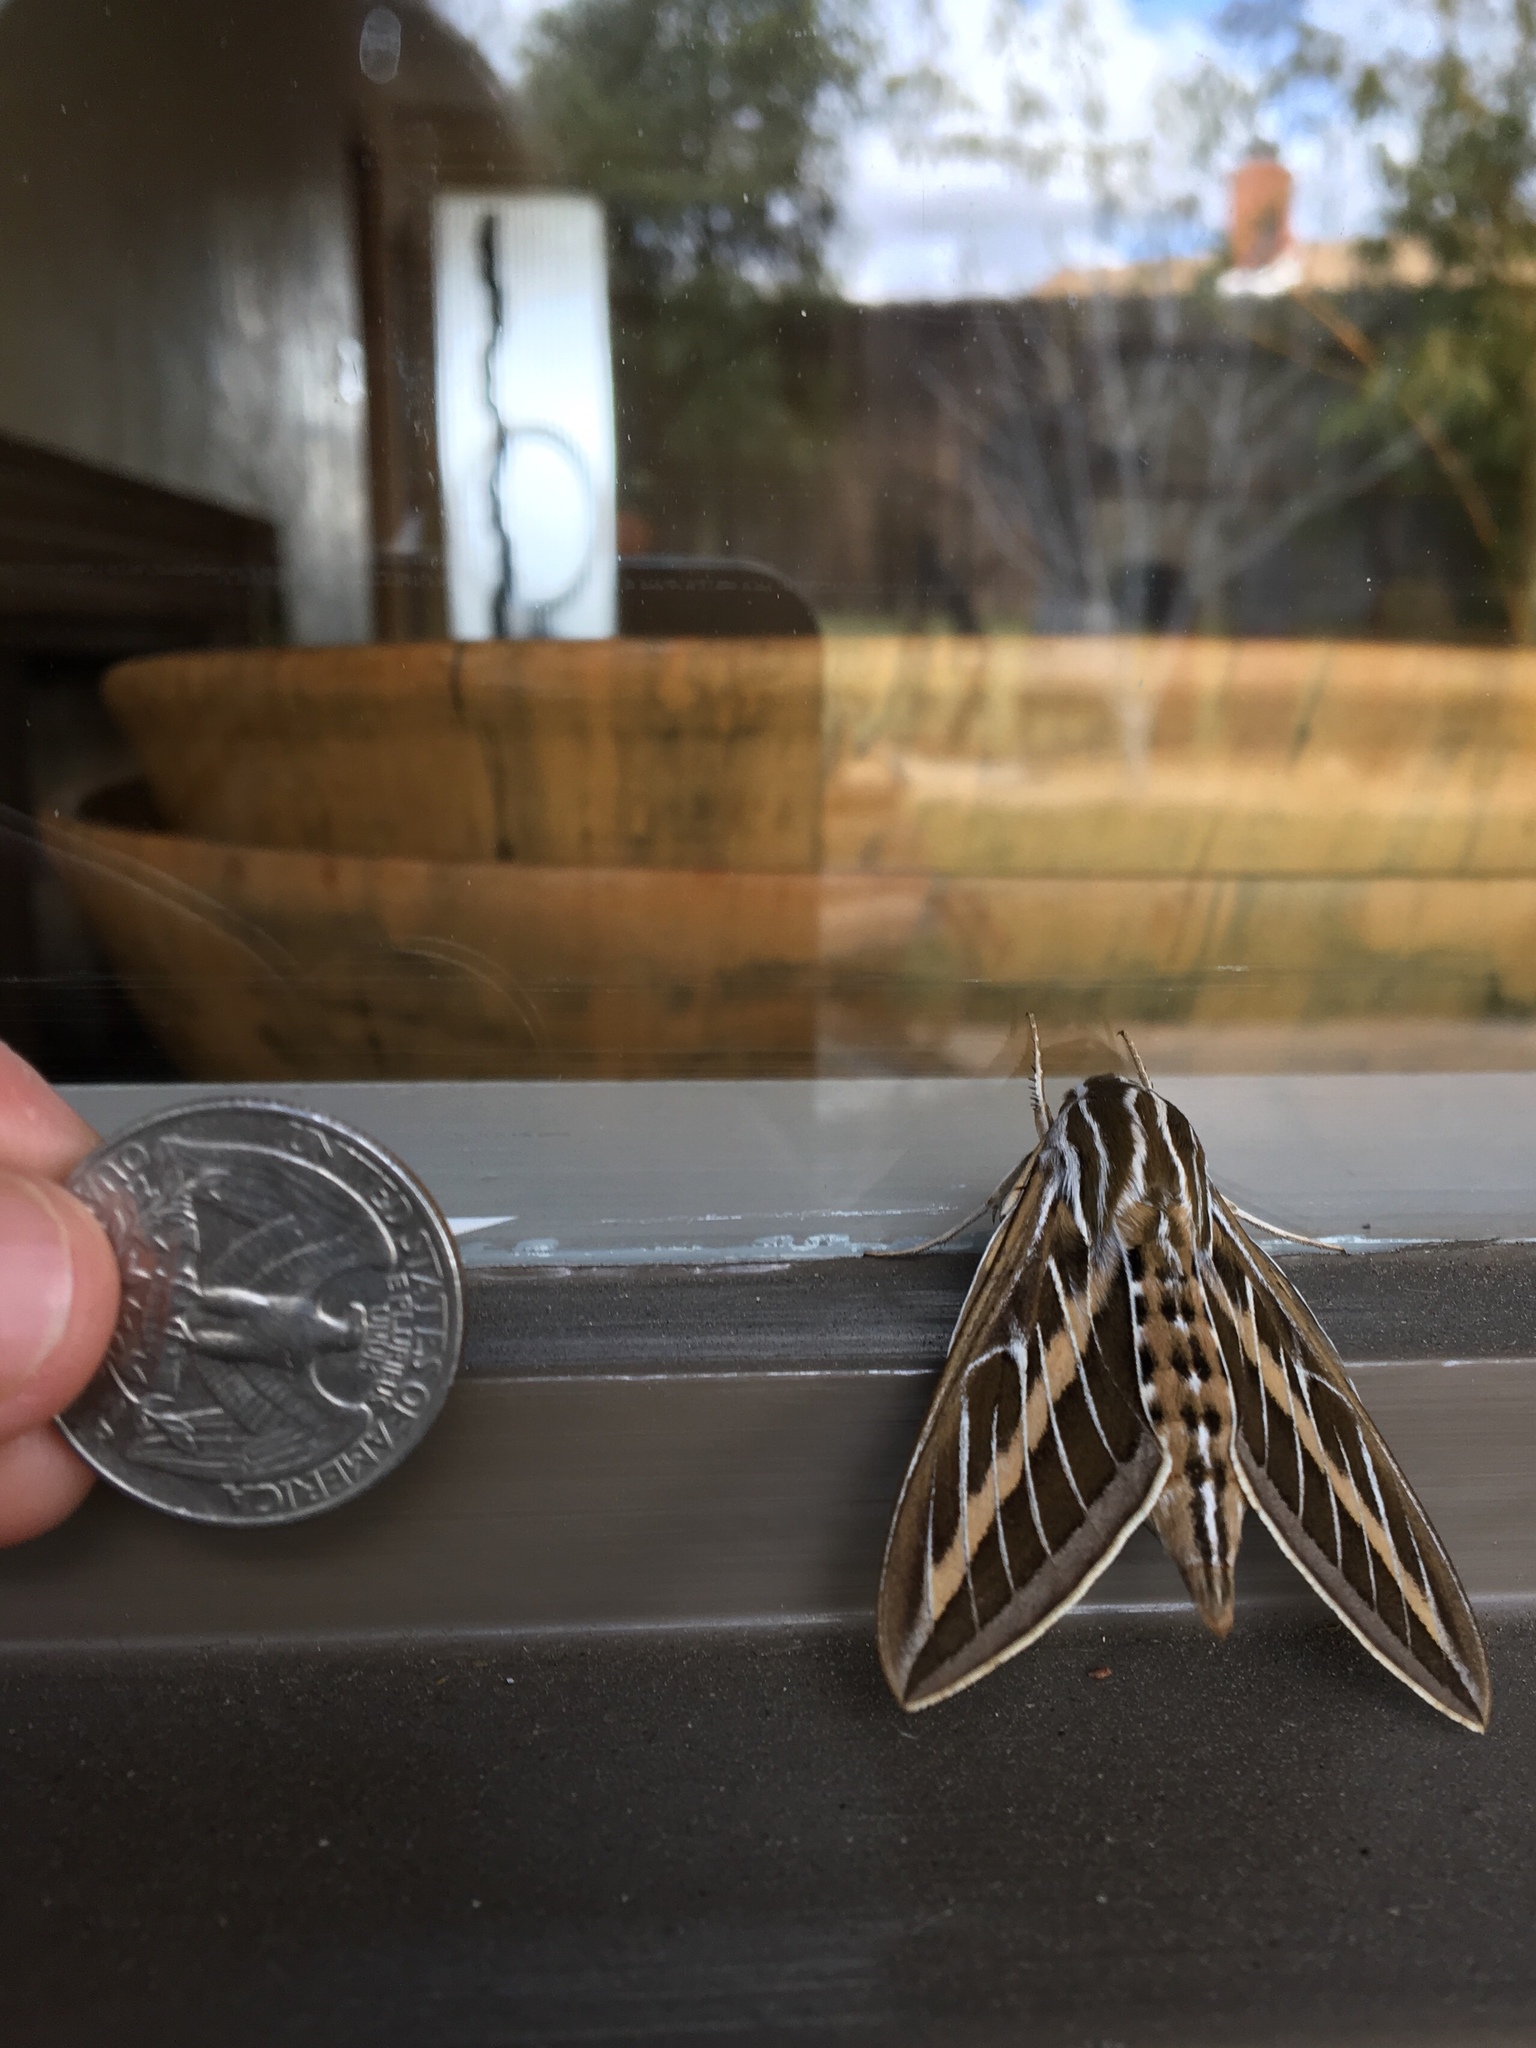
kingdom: Animalia
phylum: Arthropoda
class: Insecta
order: Lepidoptera
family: Sphingidae
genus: Hyles
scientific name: Hyles lineata
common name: White-lined sphinx
